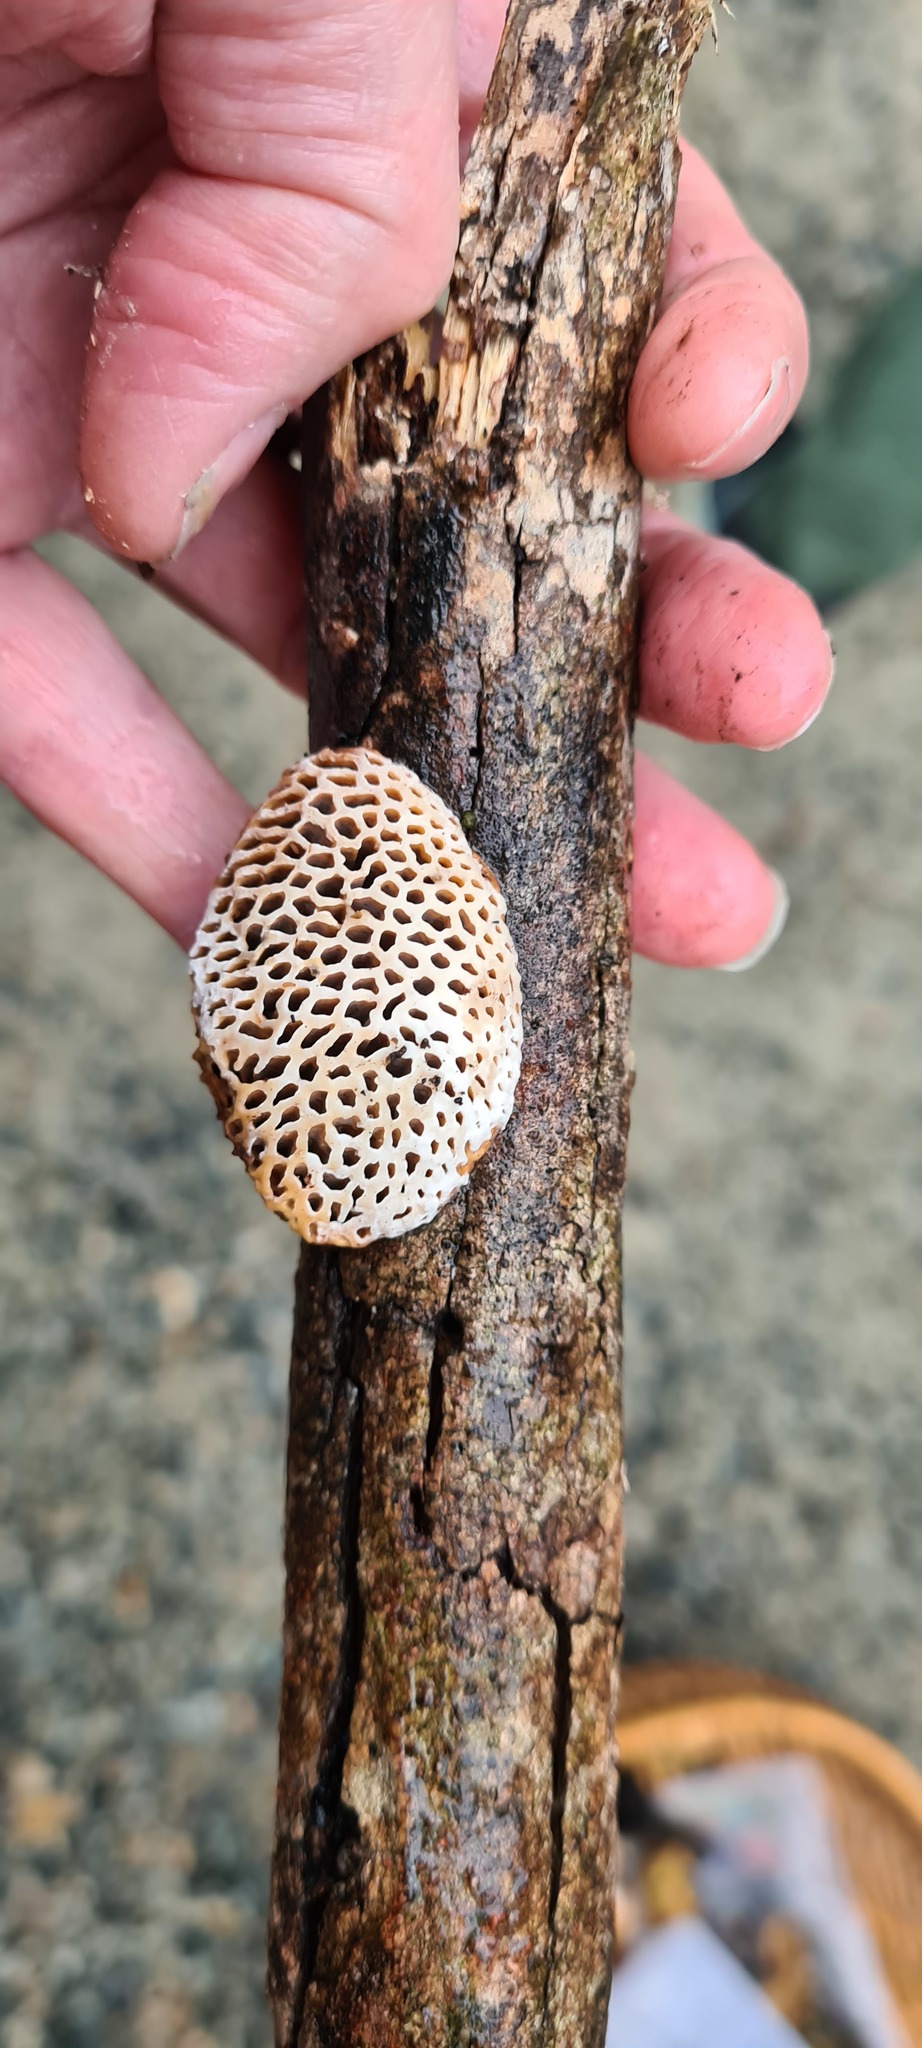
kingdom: Fungi
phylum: Basidiomycota
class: Agaricomycetes
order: Polyporales
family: Polyporaceae
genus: Hexagonia
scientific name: Hexagonia vesparia
